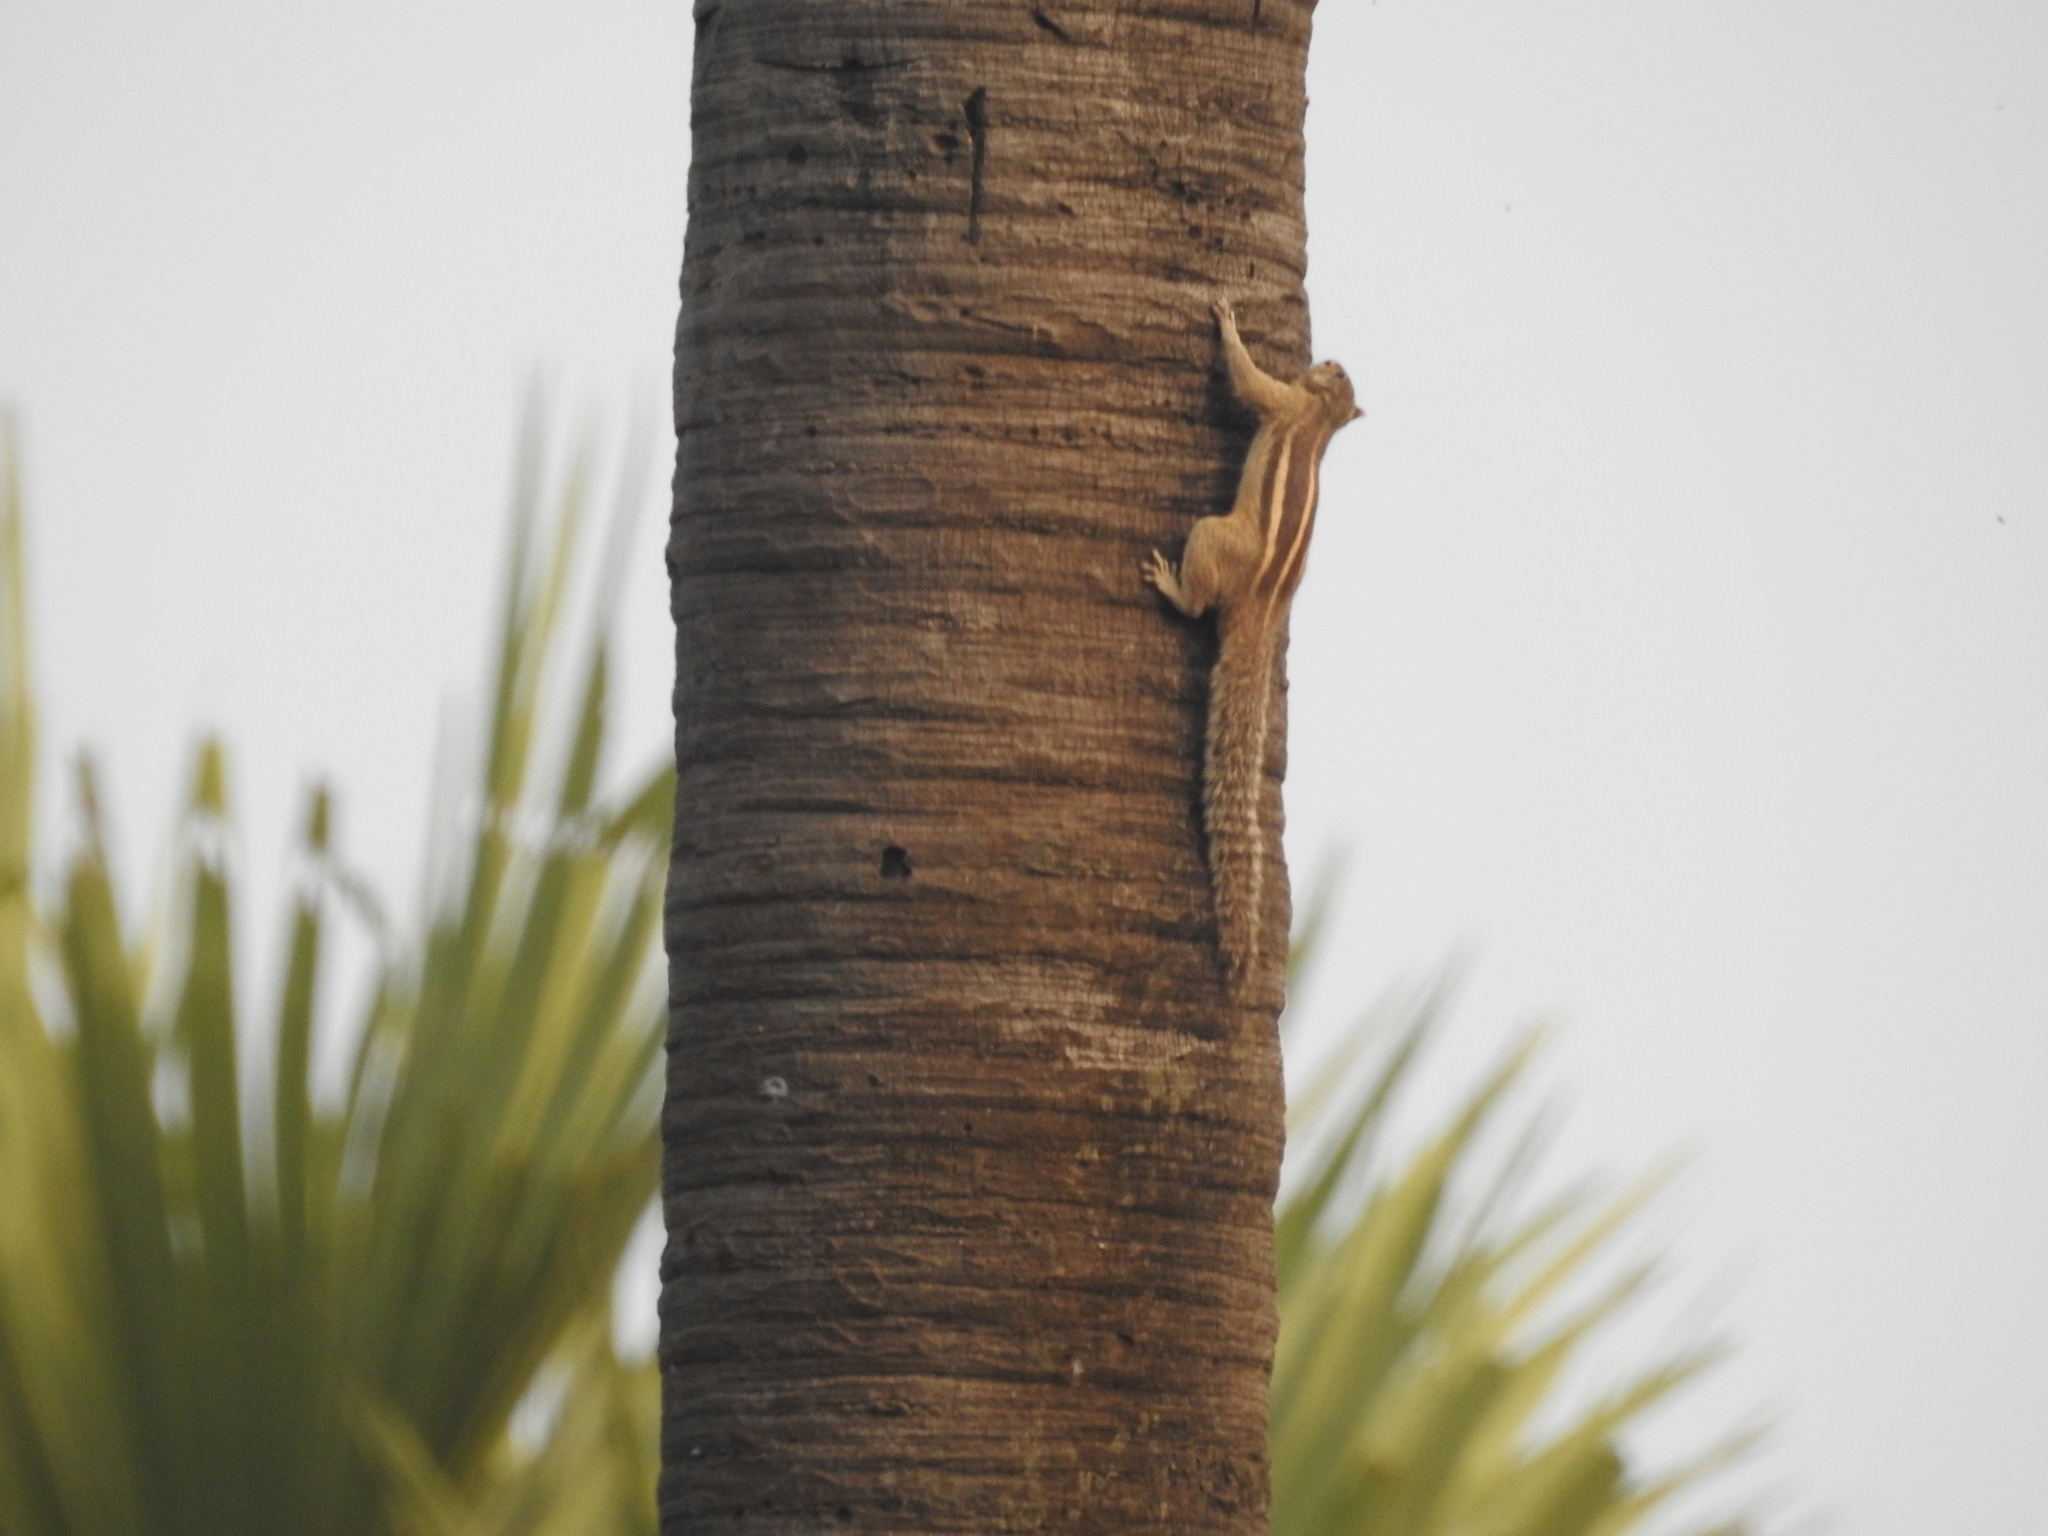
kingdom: Animalia
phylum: Chordata
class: Mammalia
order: Rodentia
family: Sciuridae
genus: Funambulus
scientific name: Funambulus palmarum
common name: Indian palm squirrel
